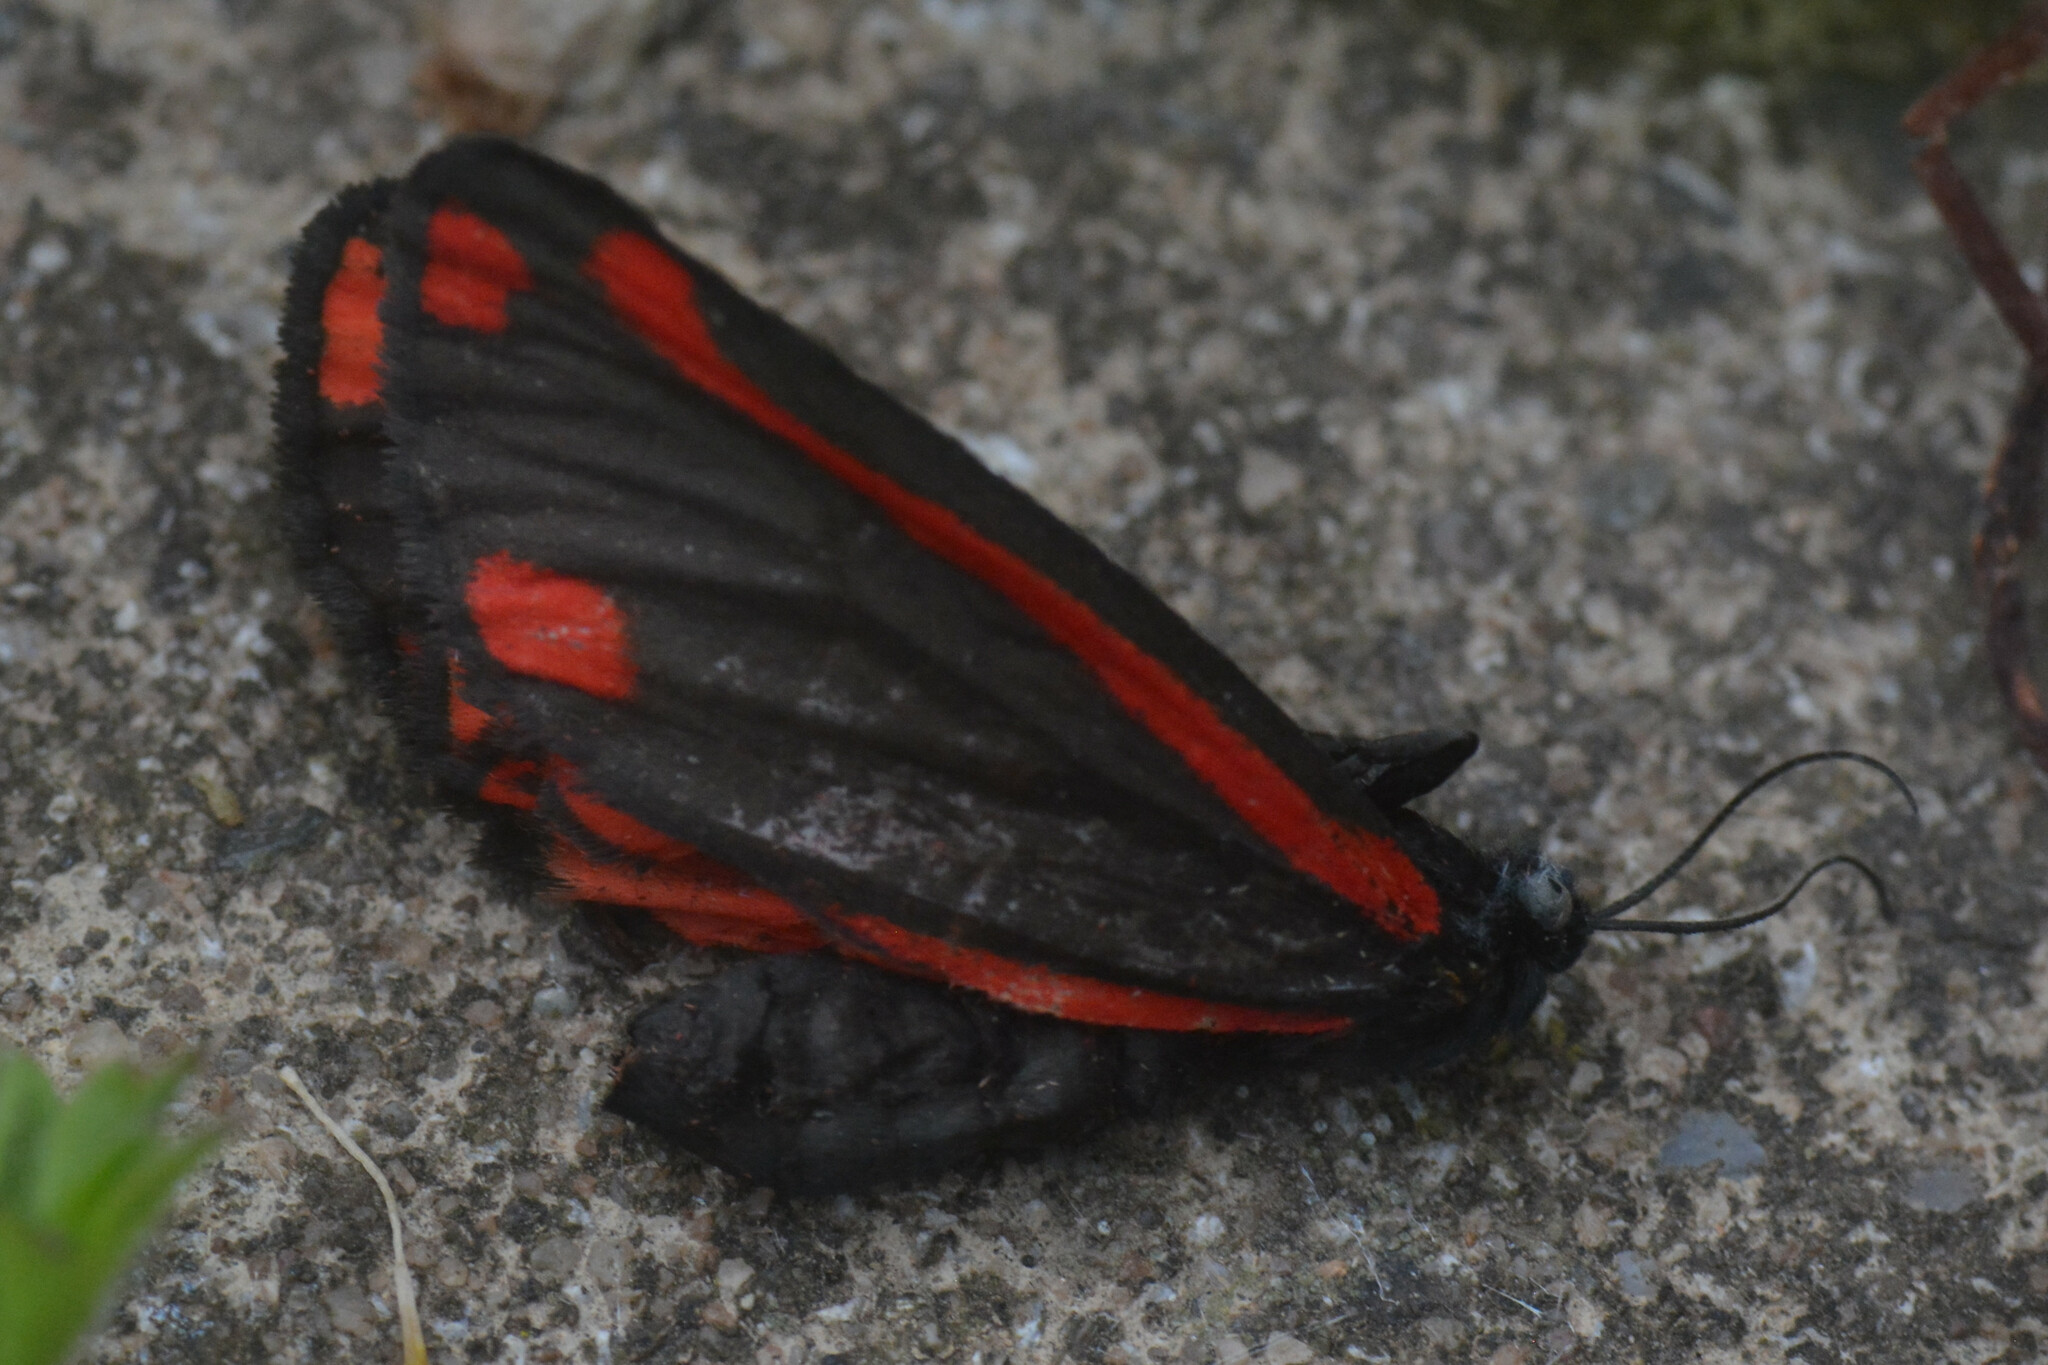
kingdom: Animalia
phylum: Arthropoda
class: Insecta
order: Lepidoptera
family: Erebidae
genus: Tyria
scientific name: Tyria jacobaeae
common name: Cinnabar
